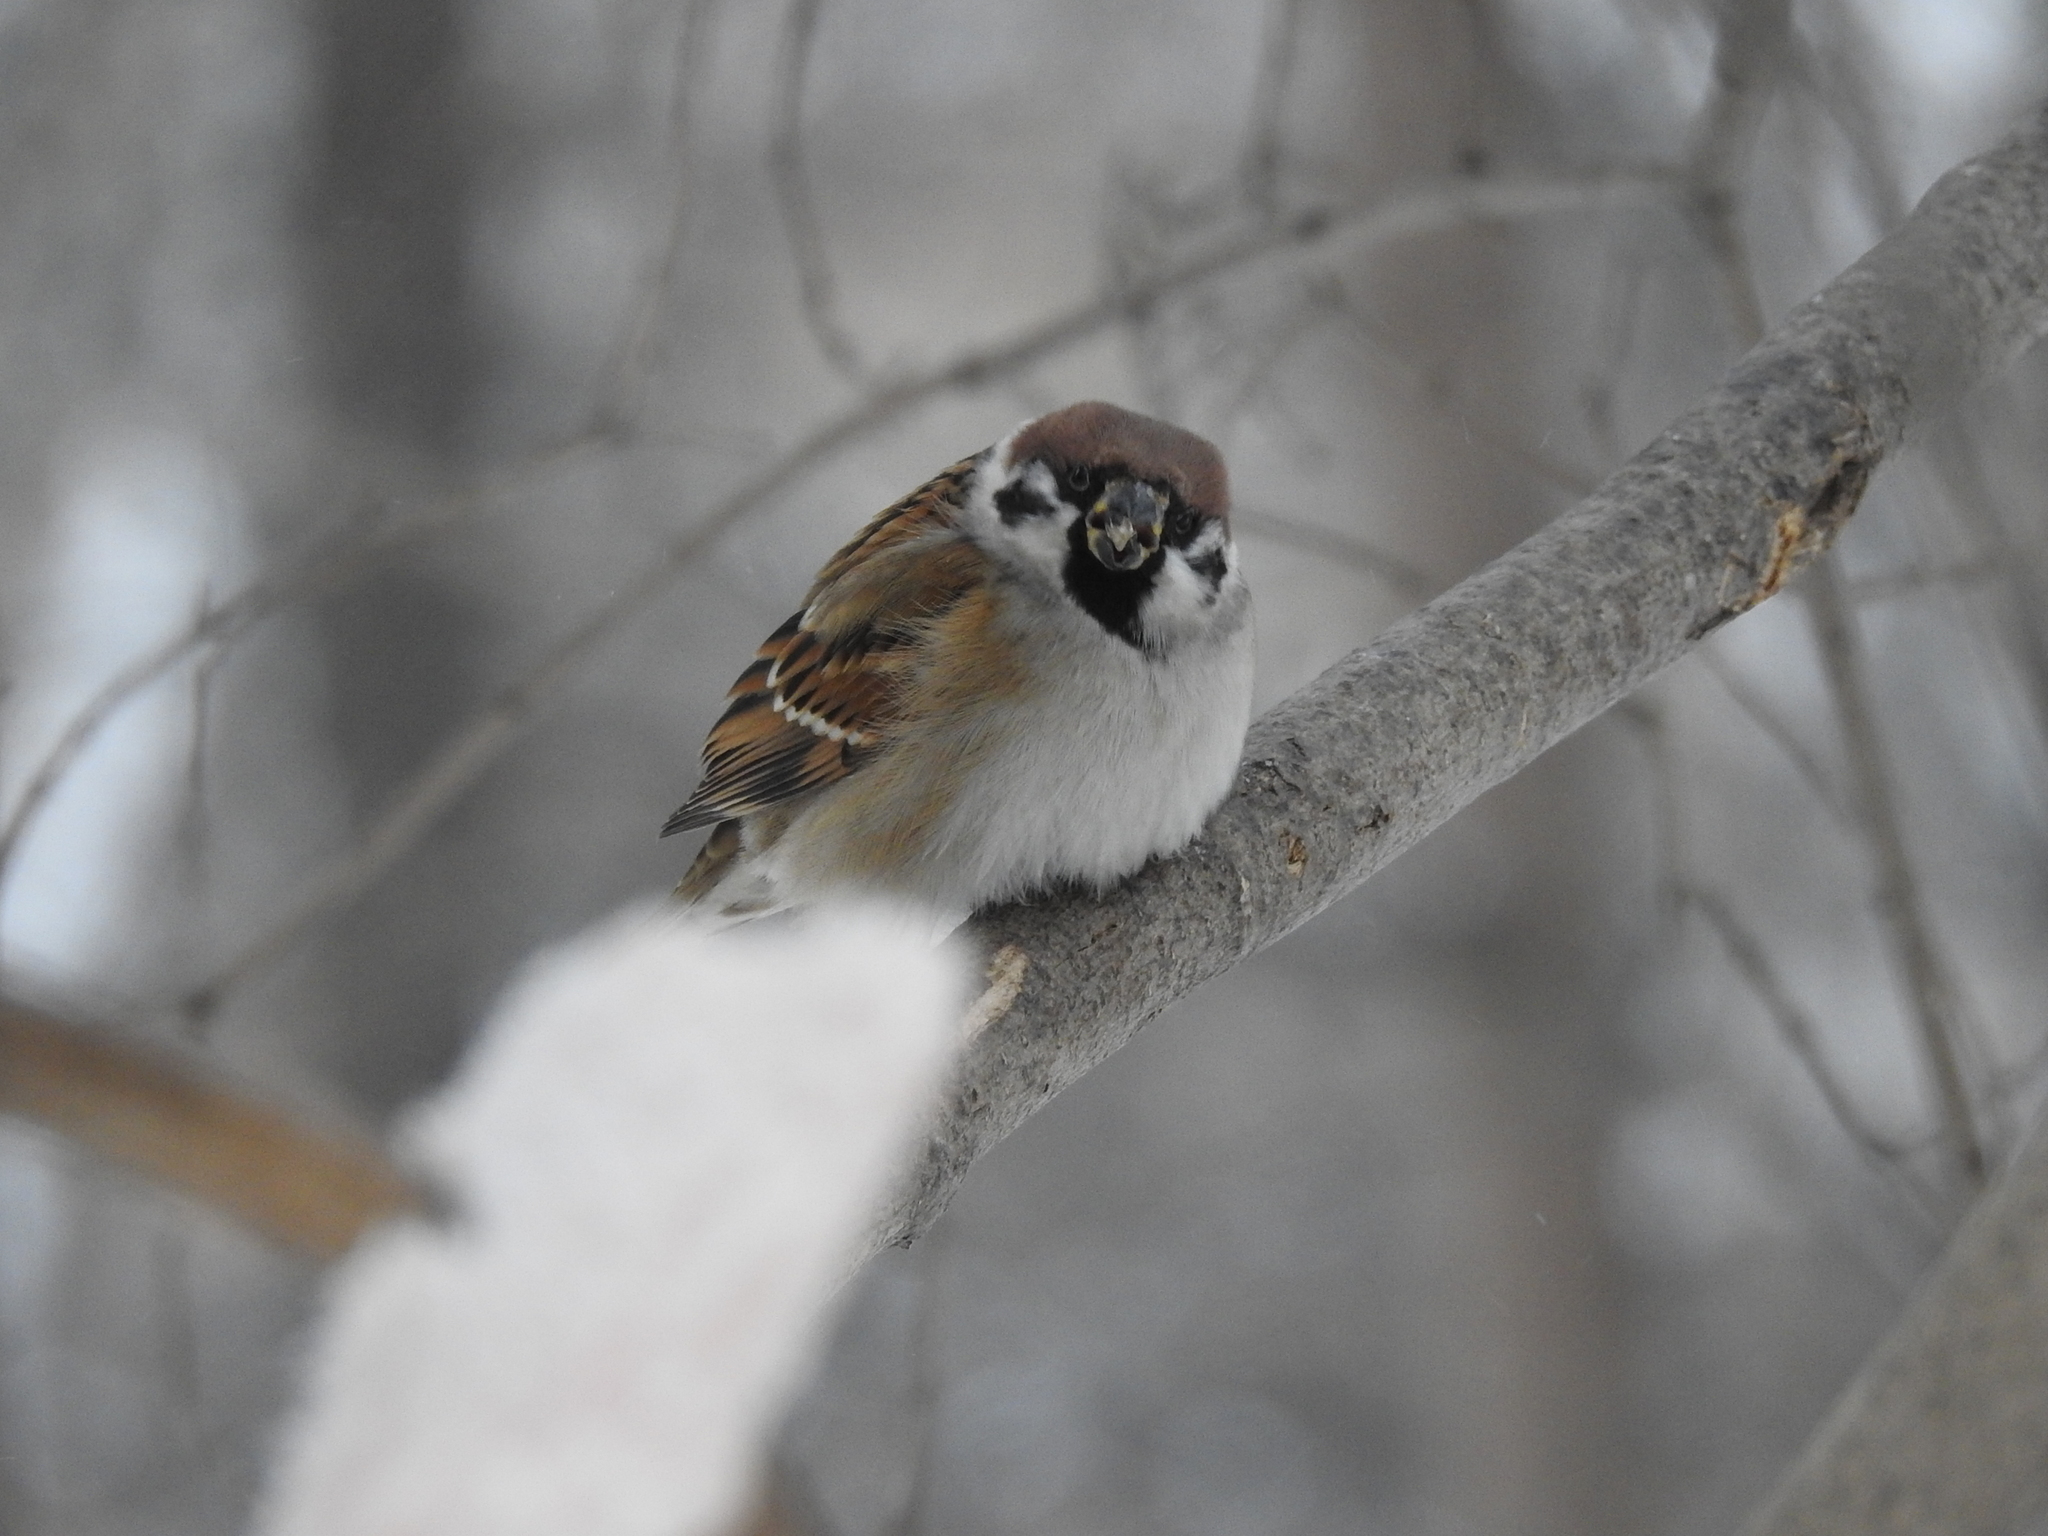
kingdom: Animalia
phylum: Chordata
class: Aves
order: Passeriformes
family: Passeridae
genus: Passer
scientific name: Passer montanus
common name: Eurasian tree sparrow
